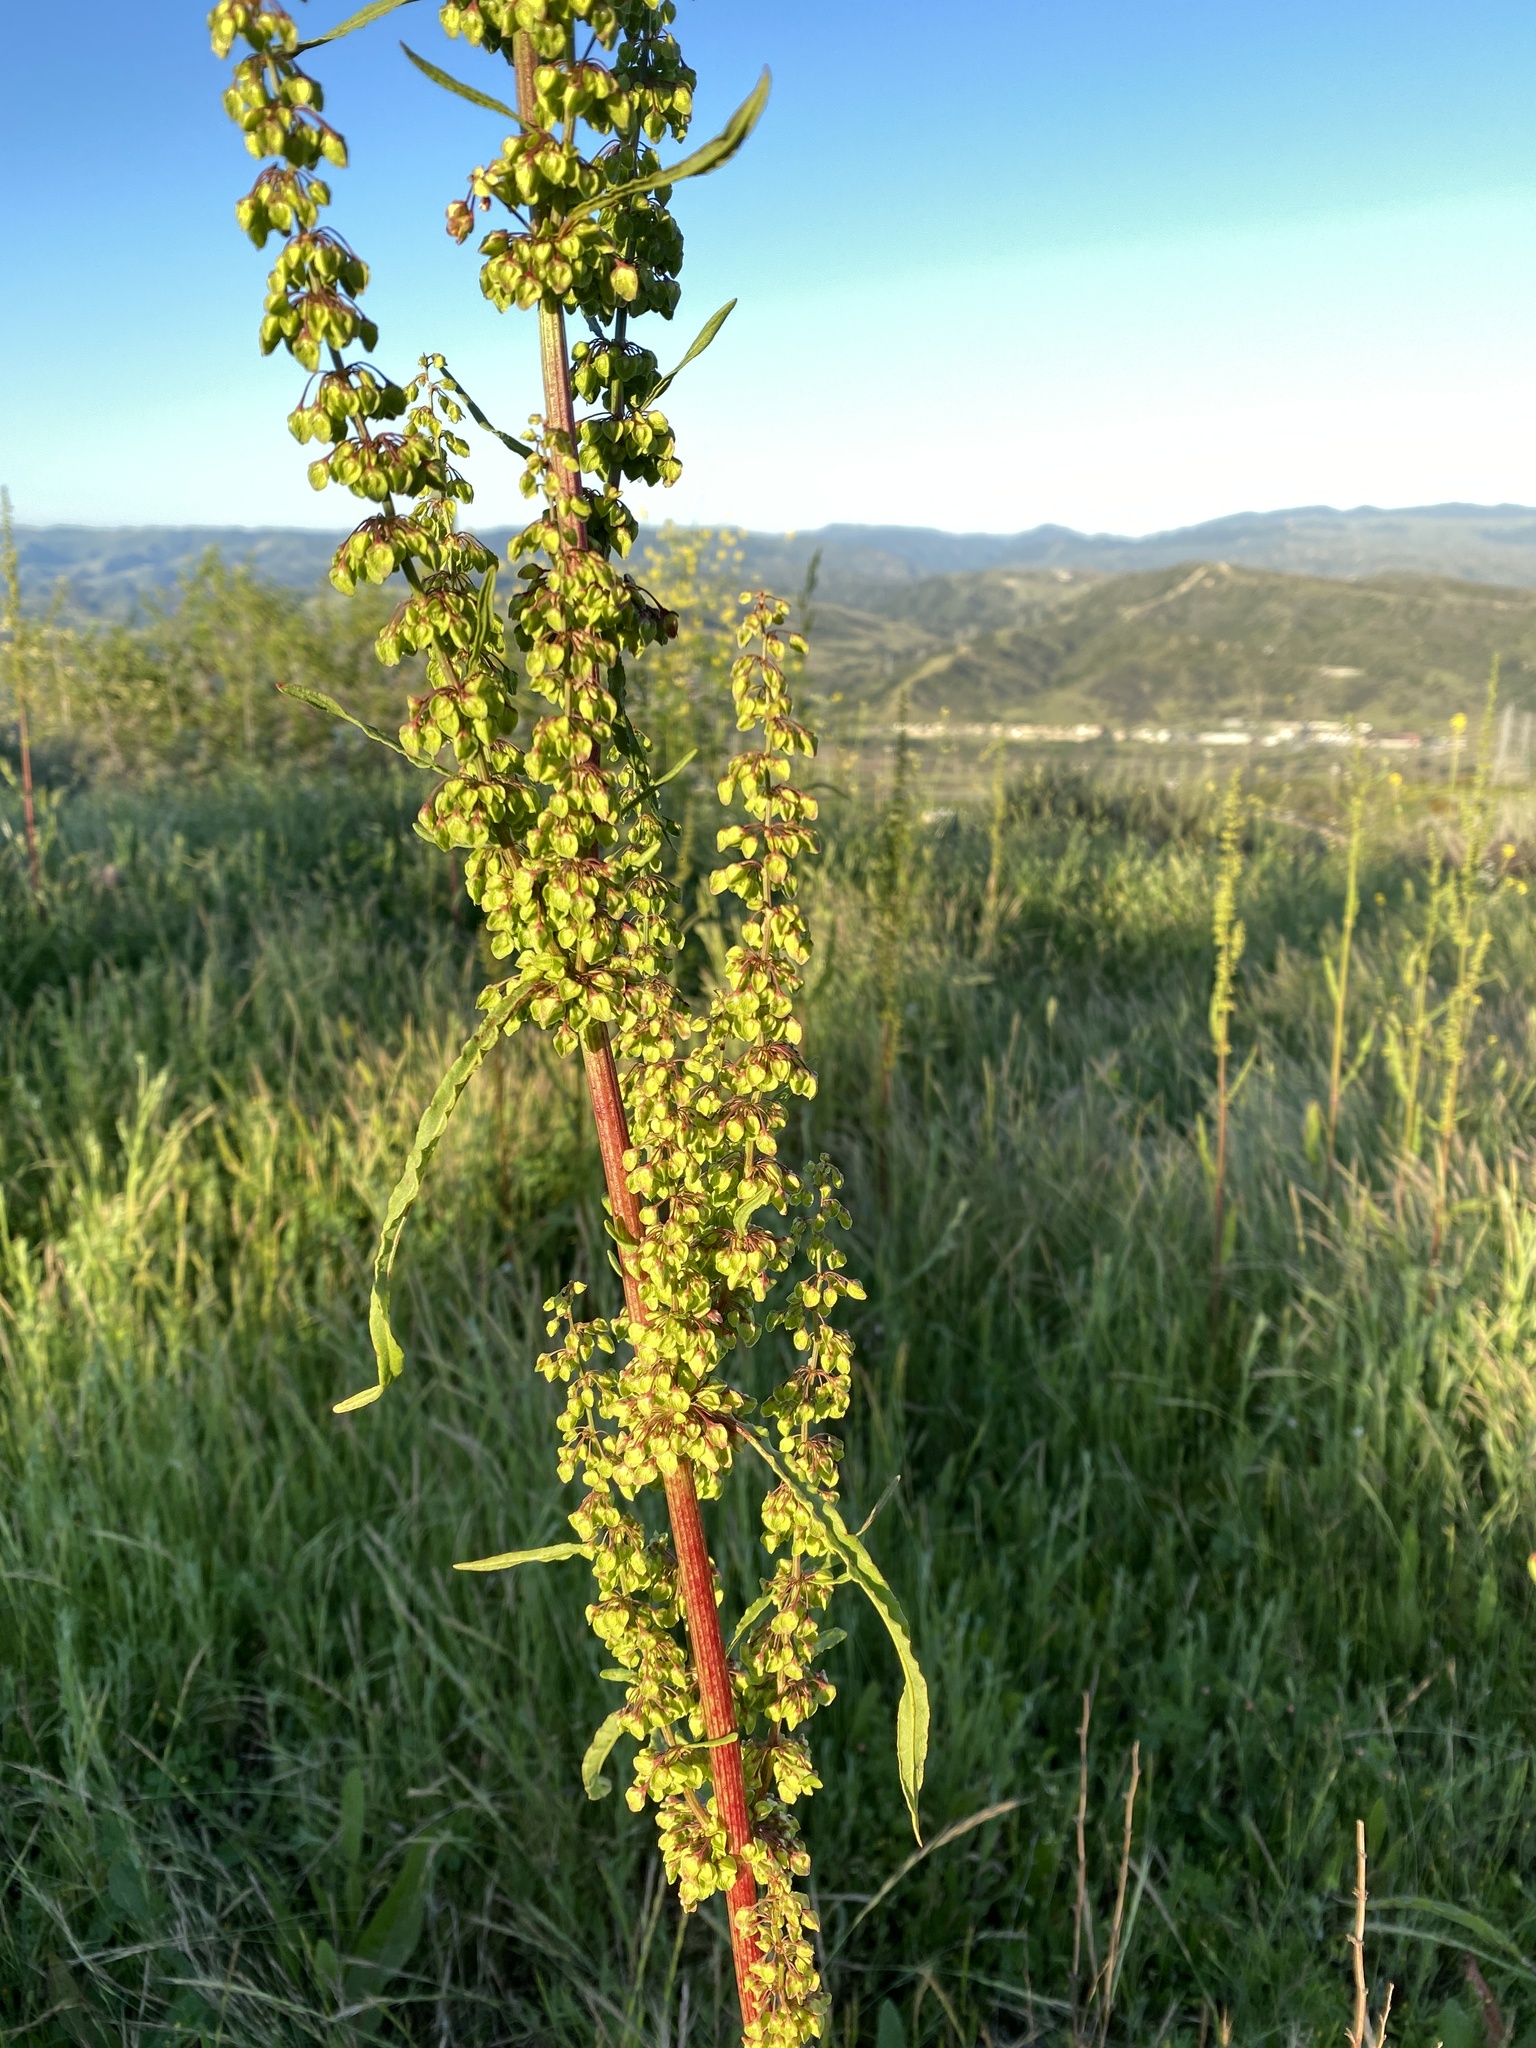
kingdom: Plantae
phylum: Tracheophyta
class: Magnoliopsida
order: Caryophyllales
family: Polygonaceae
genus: Rumex
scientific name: Rumex crispus
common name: Curled dock
